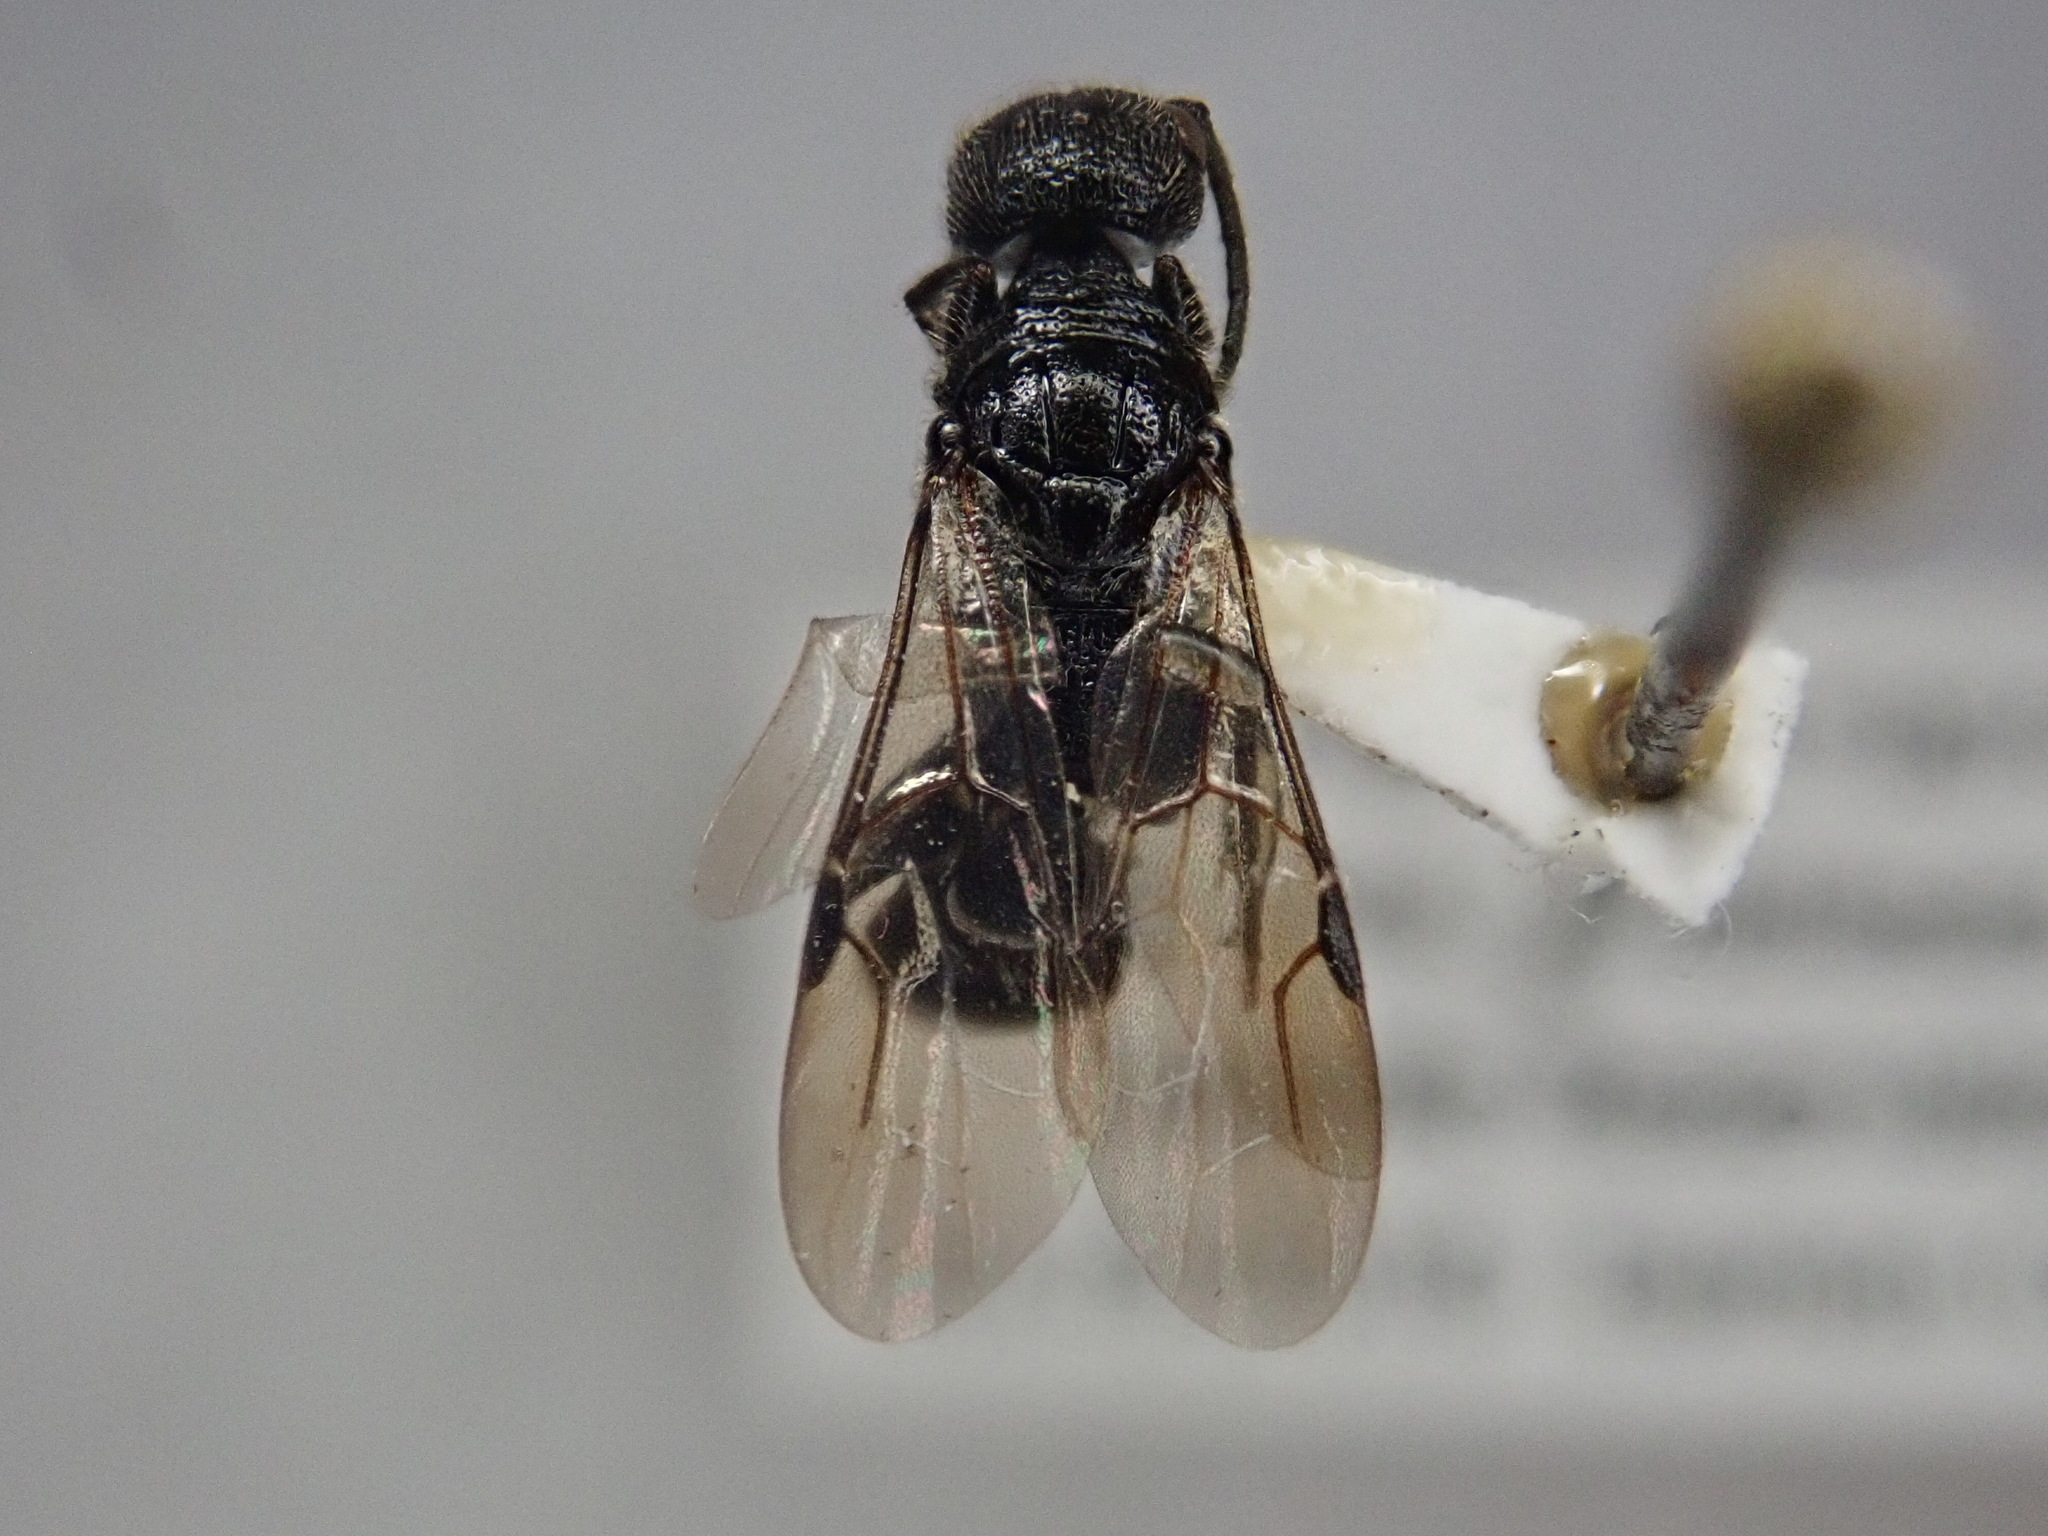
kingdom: Animalia
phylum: Arthropoda
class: Insecta
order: Hymenoptera
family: Bethylidae
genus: Pristepyris
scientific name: Pristepyris
